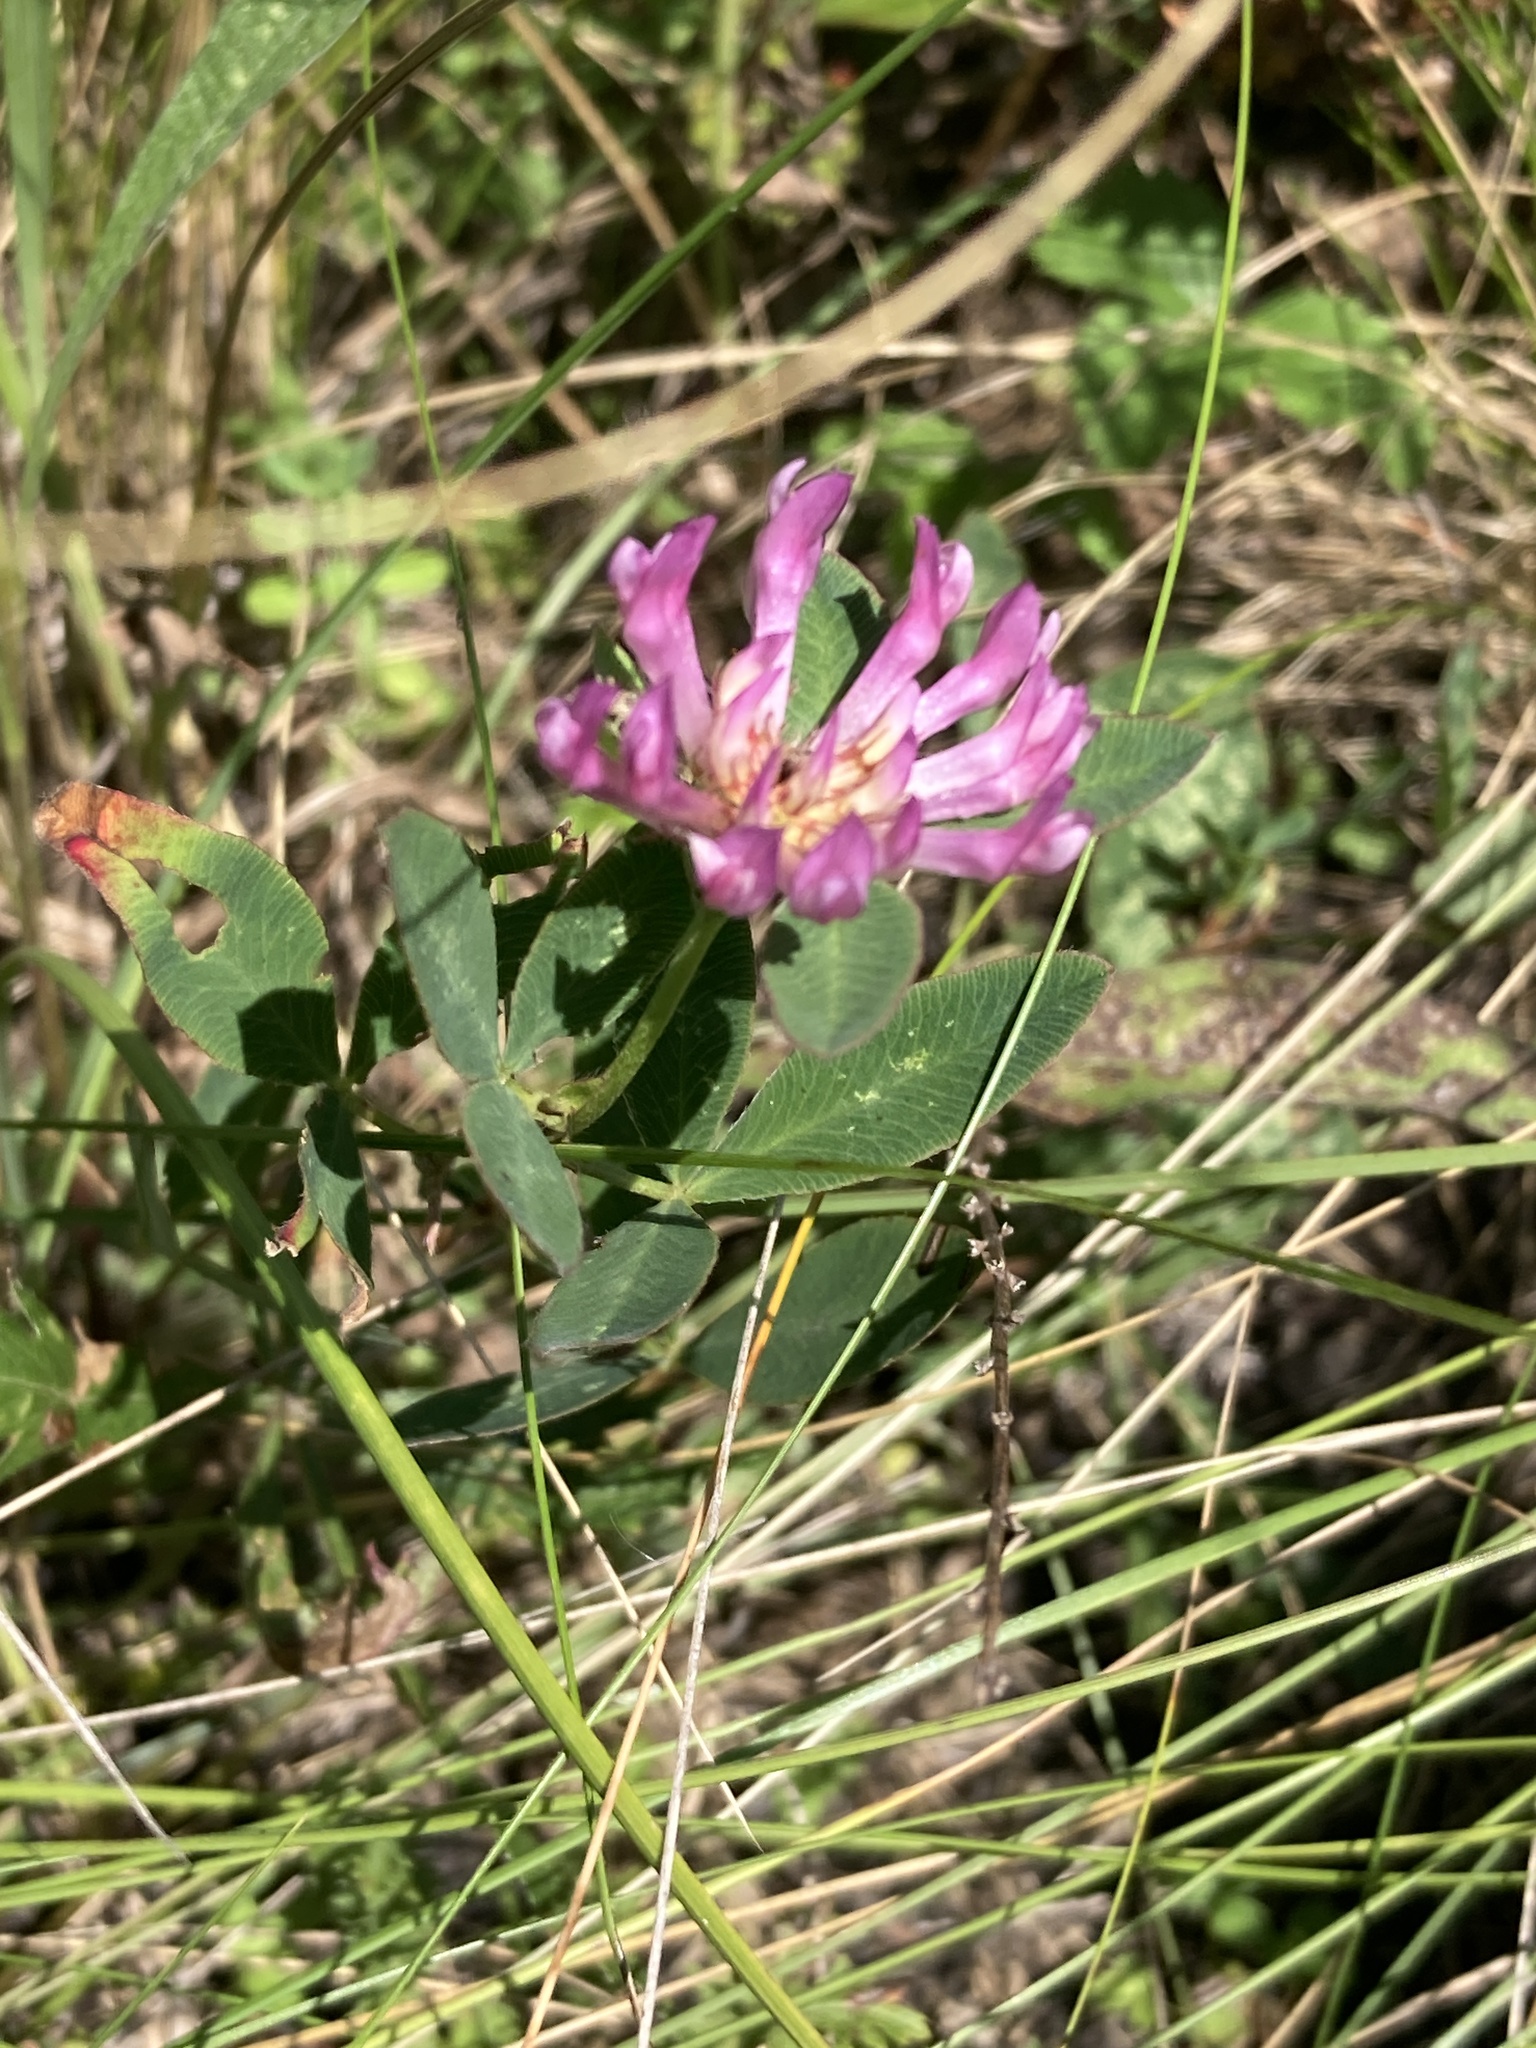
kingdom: Plantae
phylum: Tracheophyta
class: Magnoliopsida
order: Fabales
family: Fabaceae
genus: Trifolium
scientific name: Trifolium medium
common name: Zigzag clover
